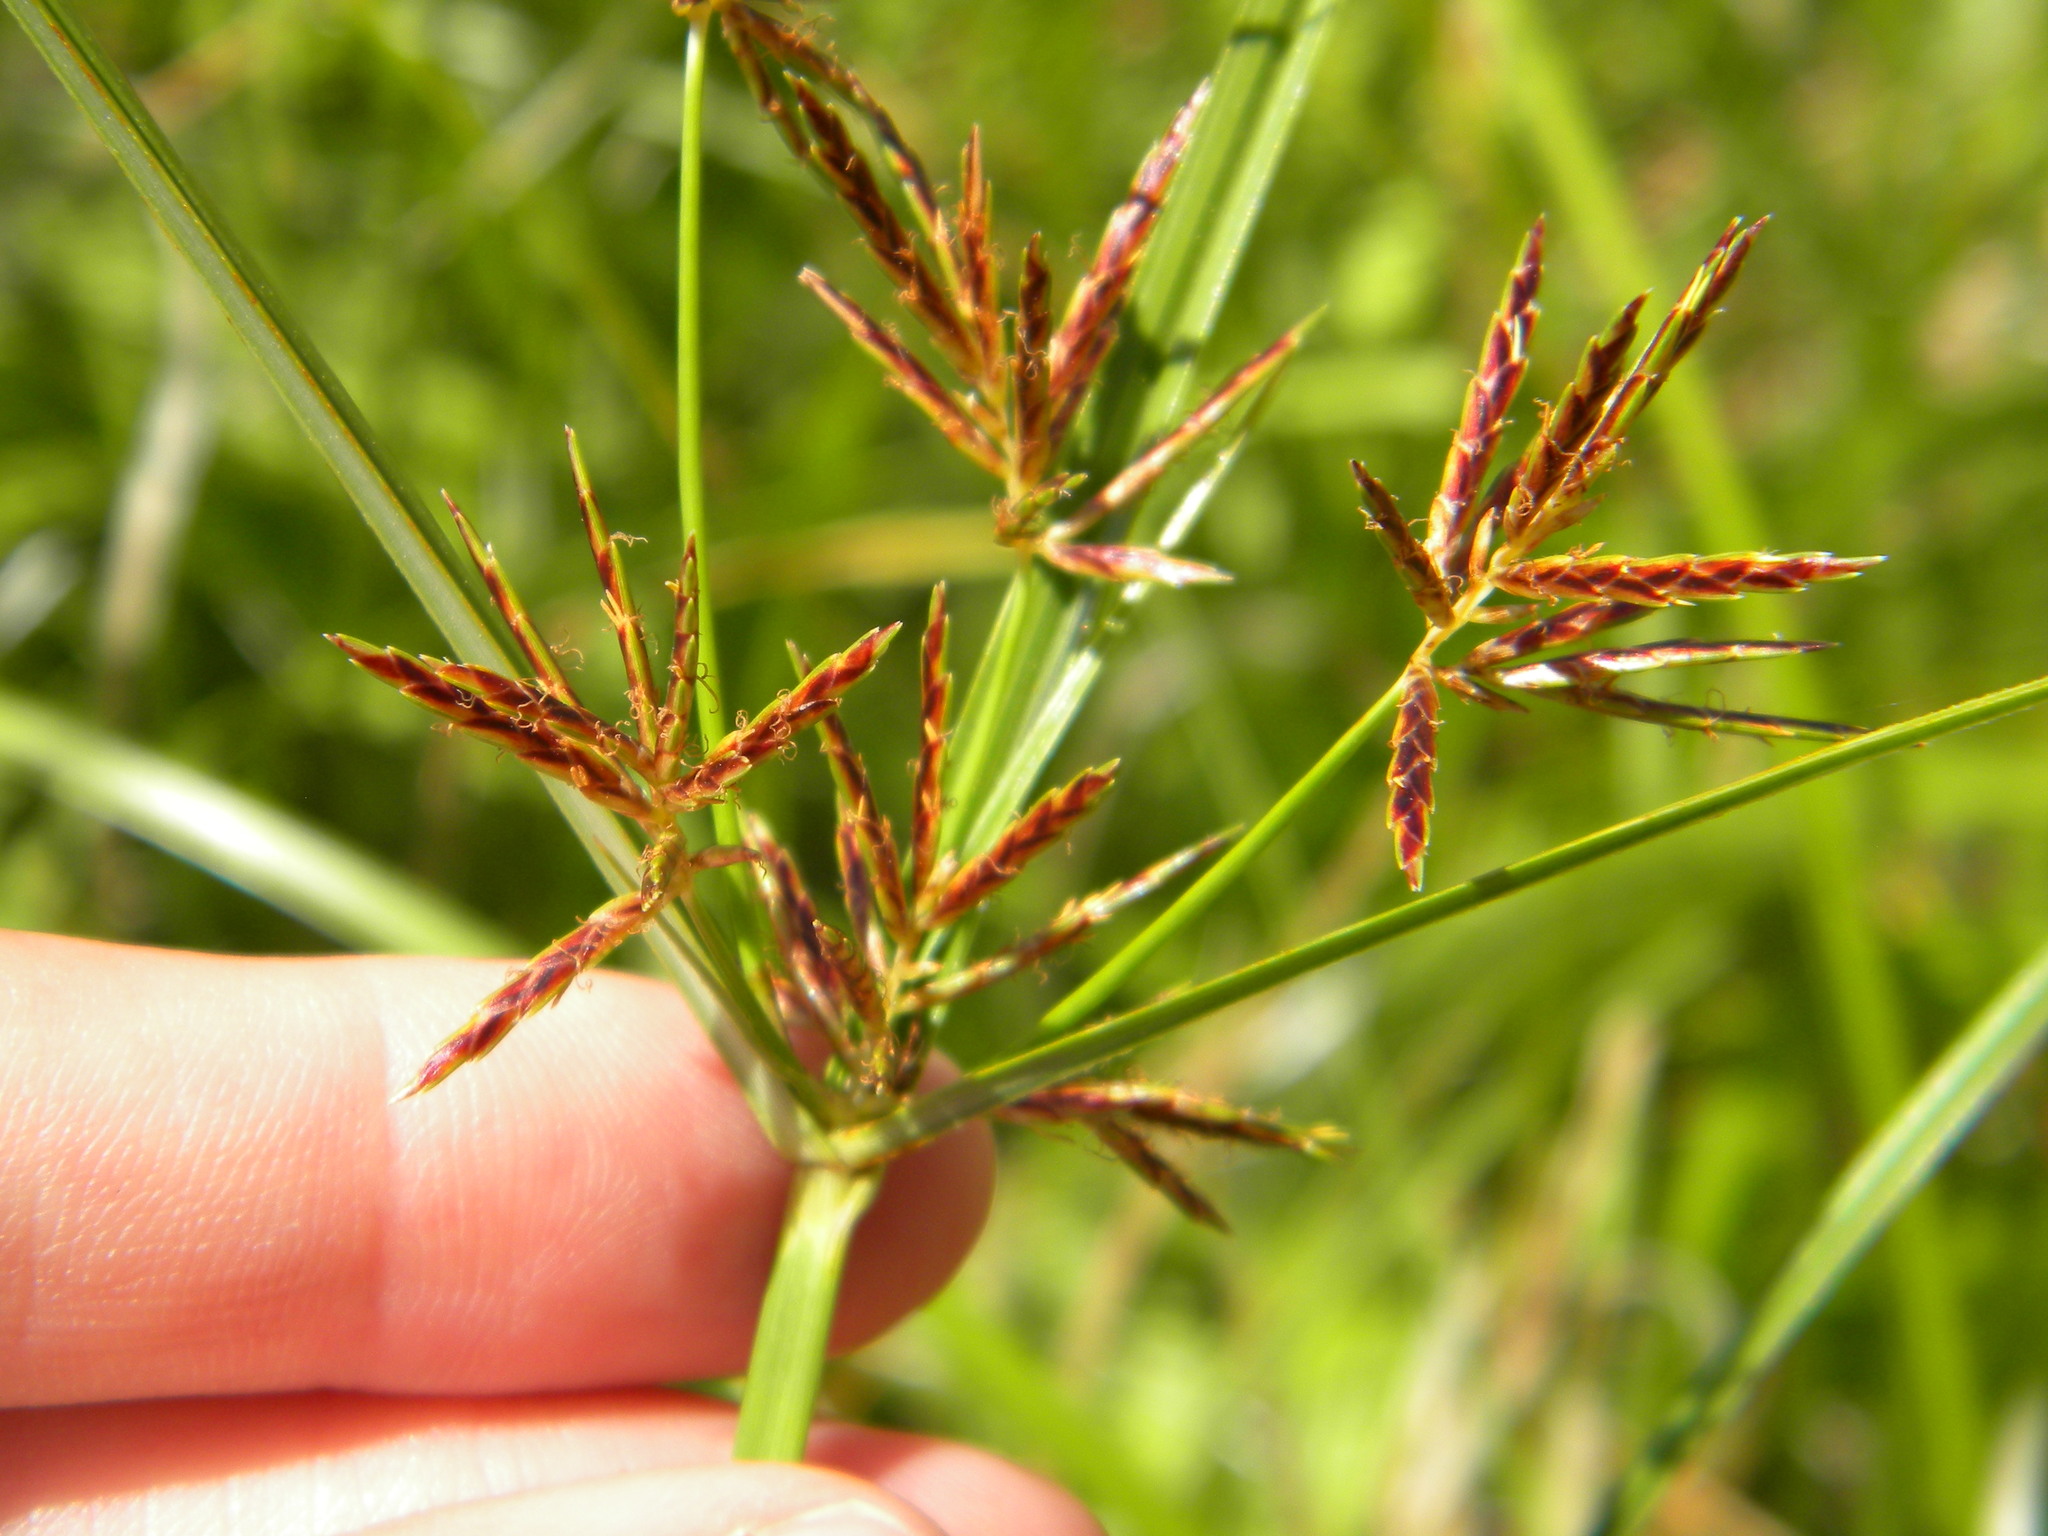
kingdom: Plantae
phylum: Tracheophyta
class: Liliopsida
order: Poales
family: Cyperaceae
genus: Cyperus
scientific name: Cyperus longus
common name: Galingale
